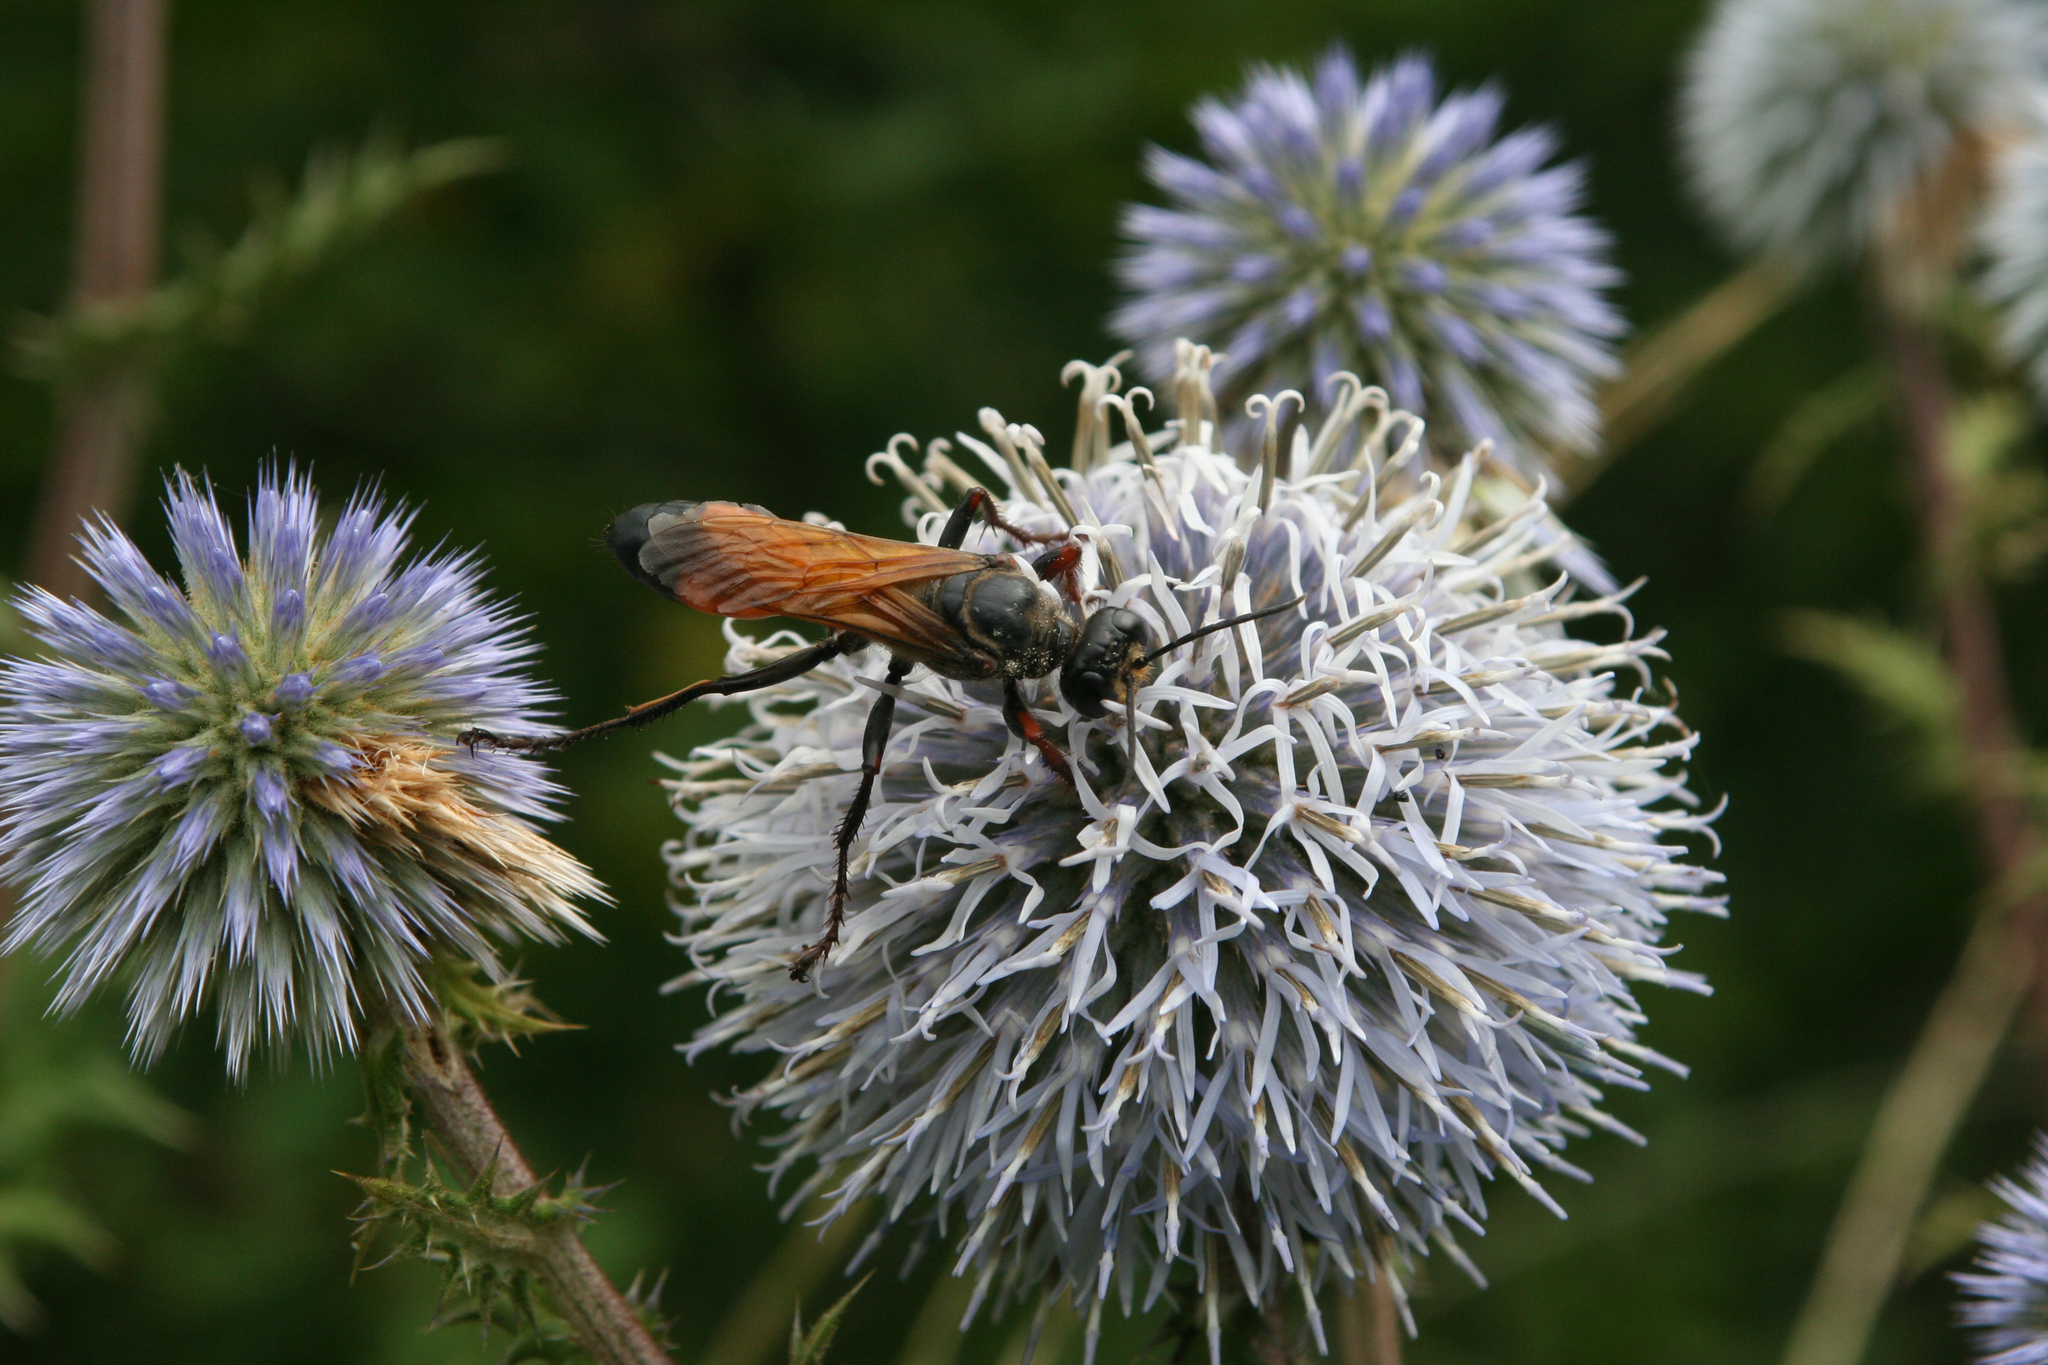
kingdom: Plantae
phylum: Tracheophyta
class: Magnoliopsida
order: Asterales
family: Asteraceae
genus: Echinops
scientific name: Echinops sphaerocephalus
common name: Glandular globe-thistle
